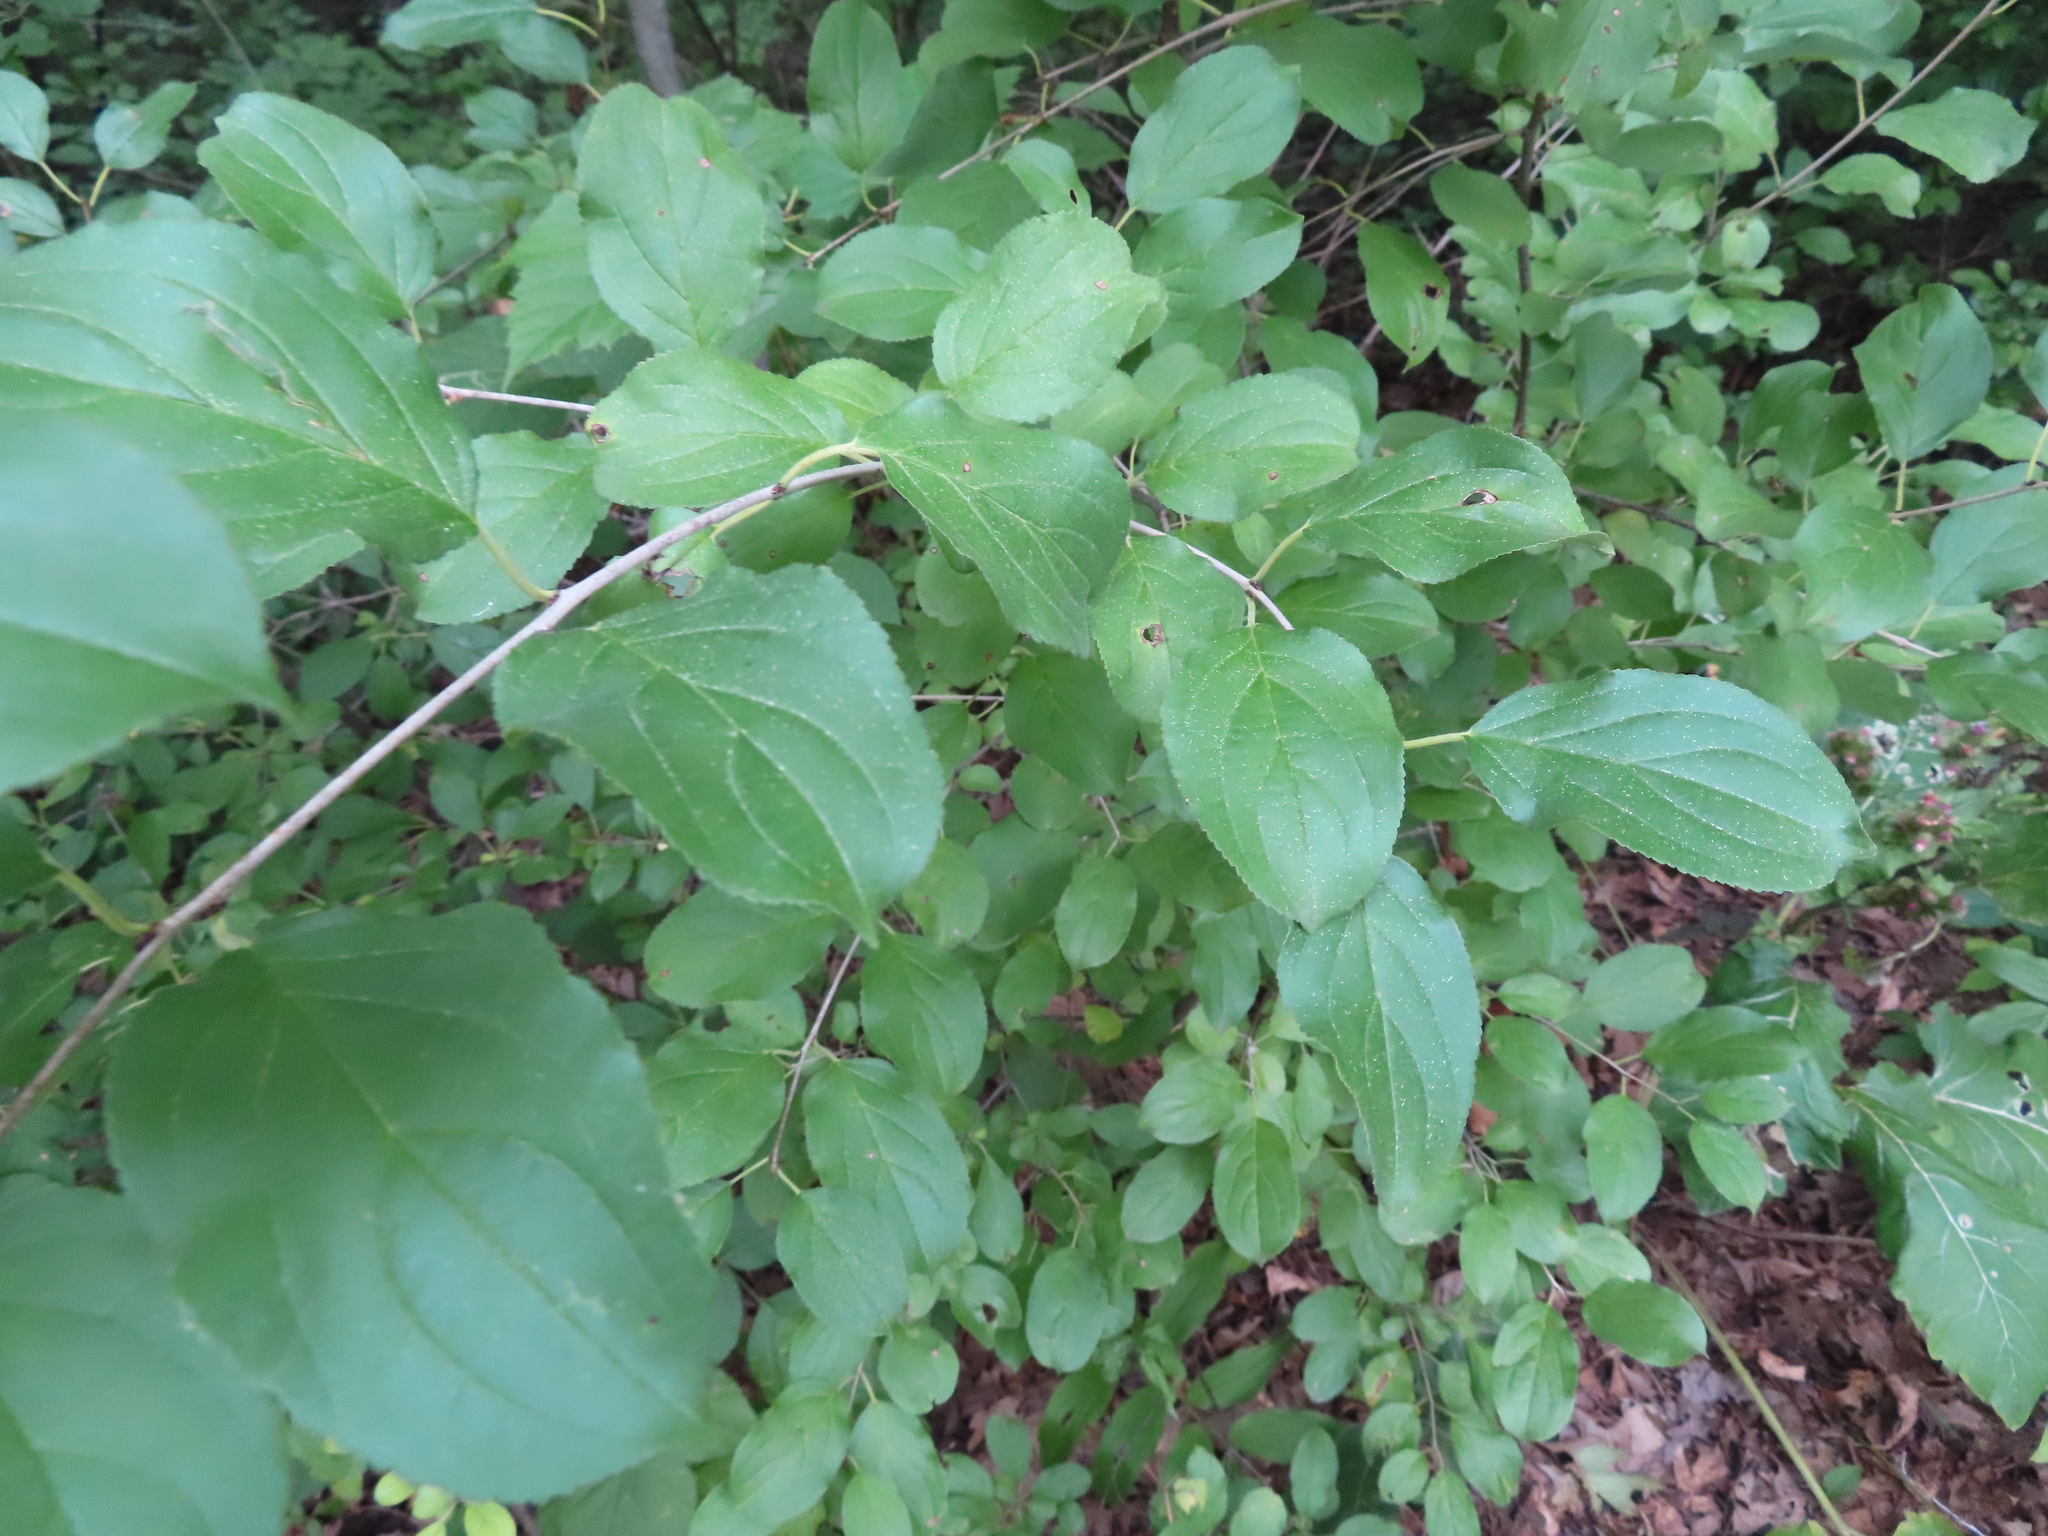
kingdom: Plantae
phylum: Tracheophyta
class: Magnoliopsida
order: Rosales
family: Rhamnaceae
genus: Rhamnus
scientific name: Rhamnus cathartica
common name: Common buckthorn
